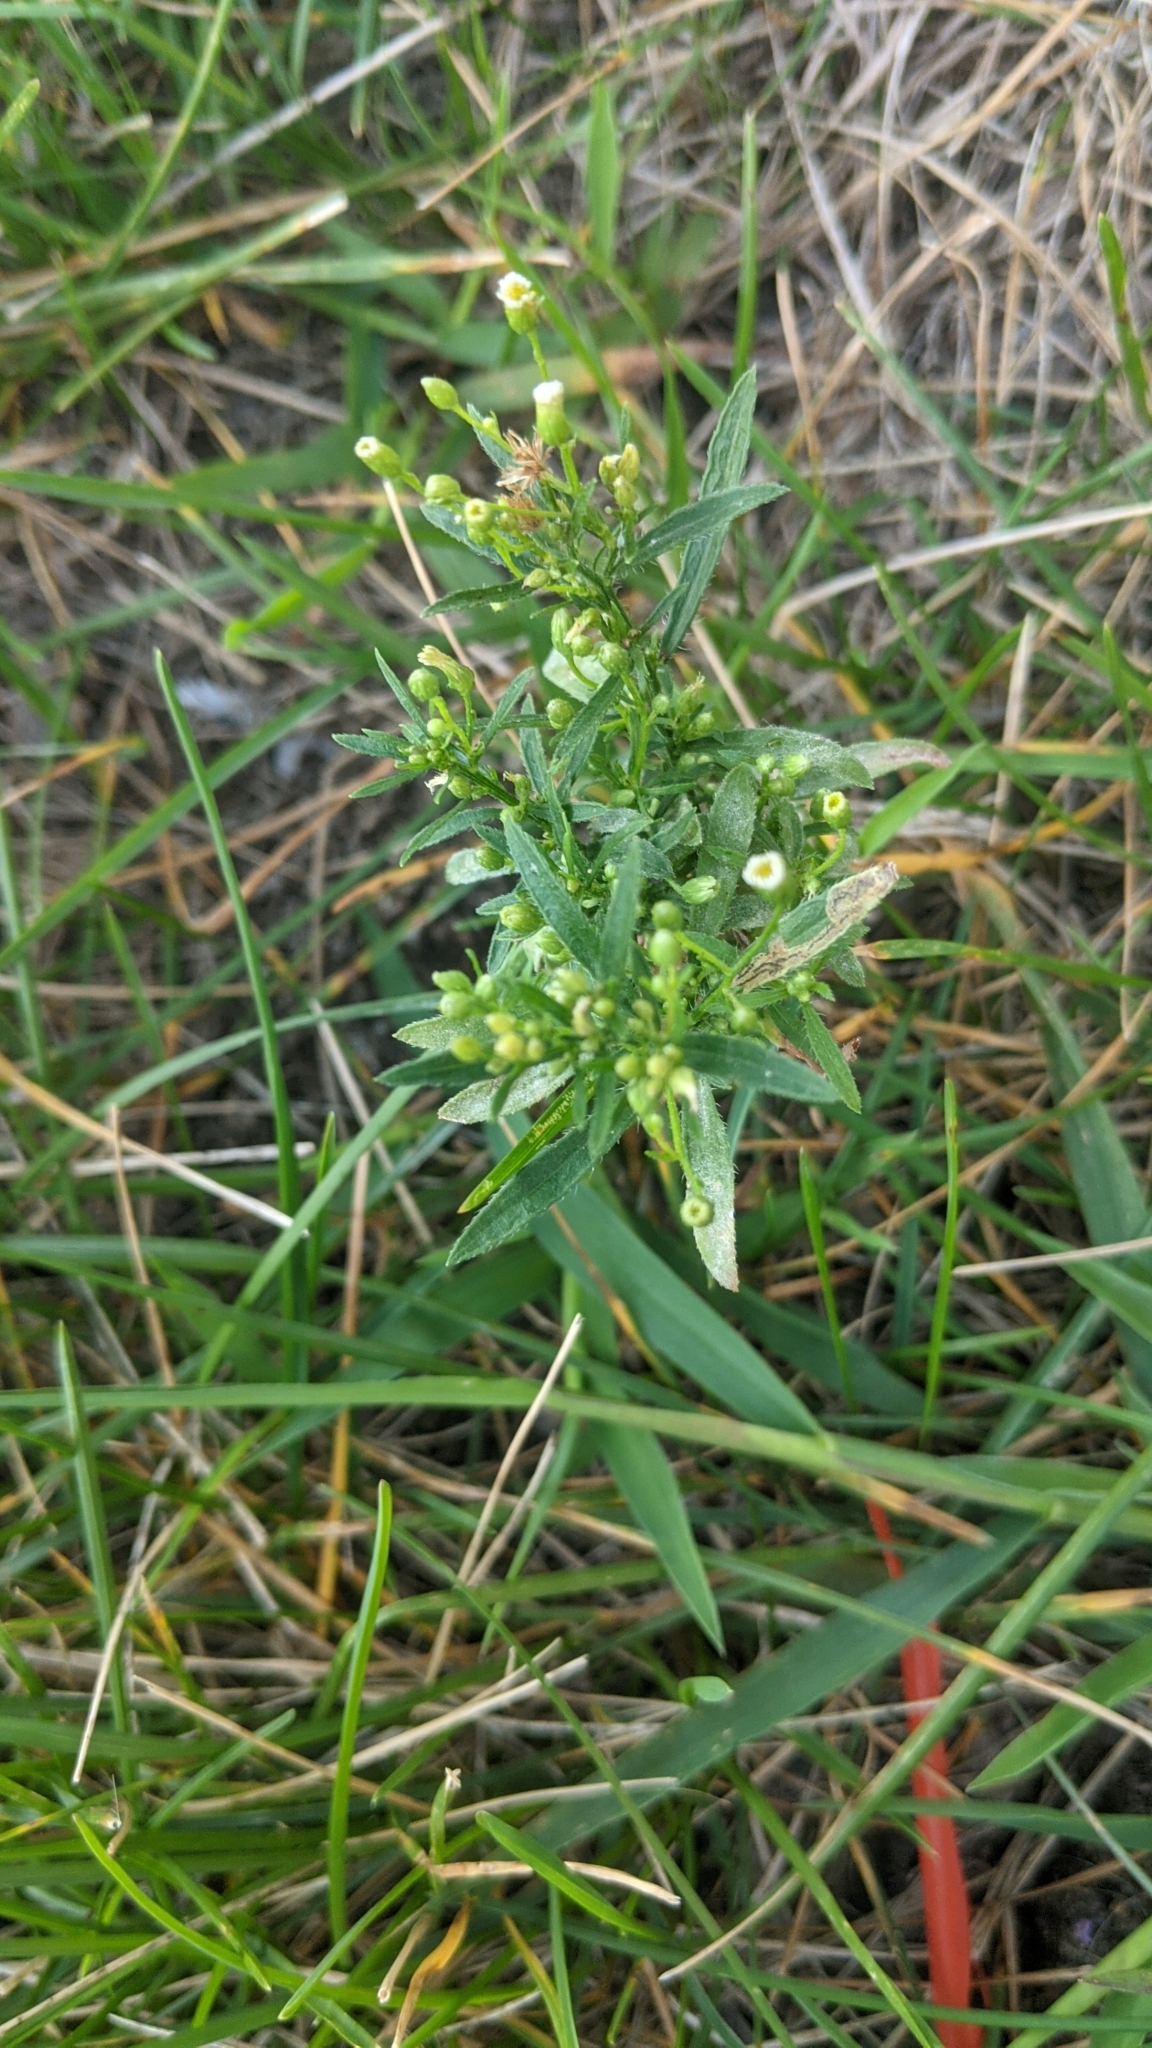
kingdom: Plantae
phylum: Tracheophyta
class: Magnoliopsida
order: Asterales
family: Asteraceae
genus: Erigeron
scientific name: Erigeron canadensis
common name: Canadian fleabane
